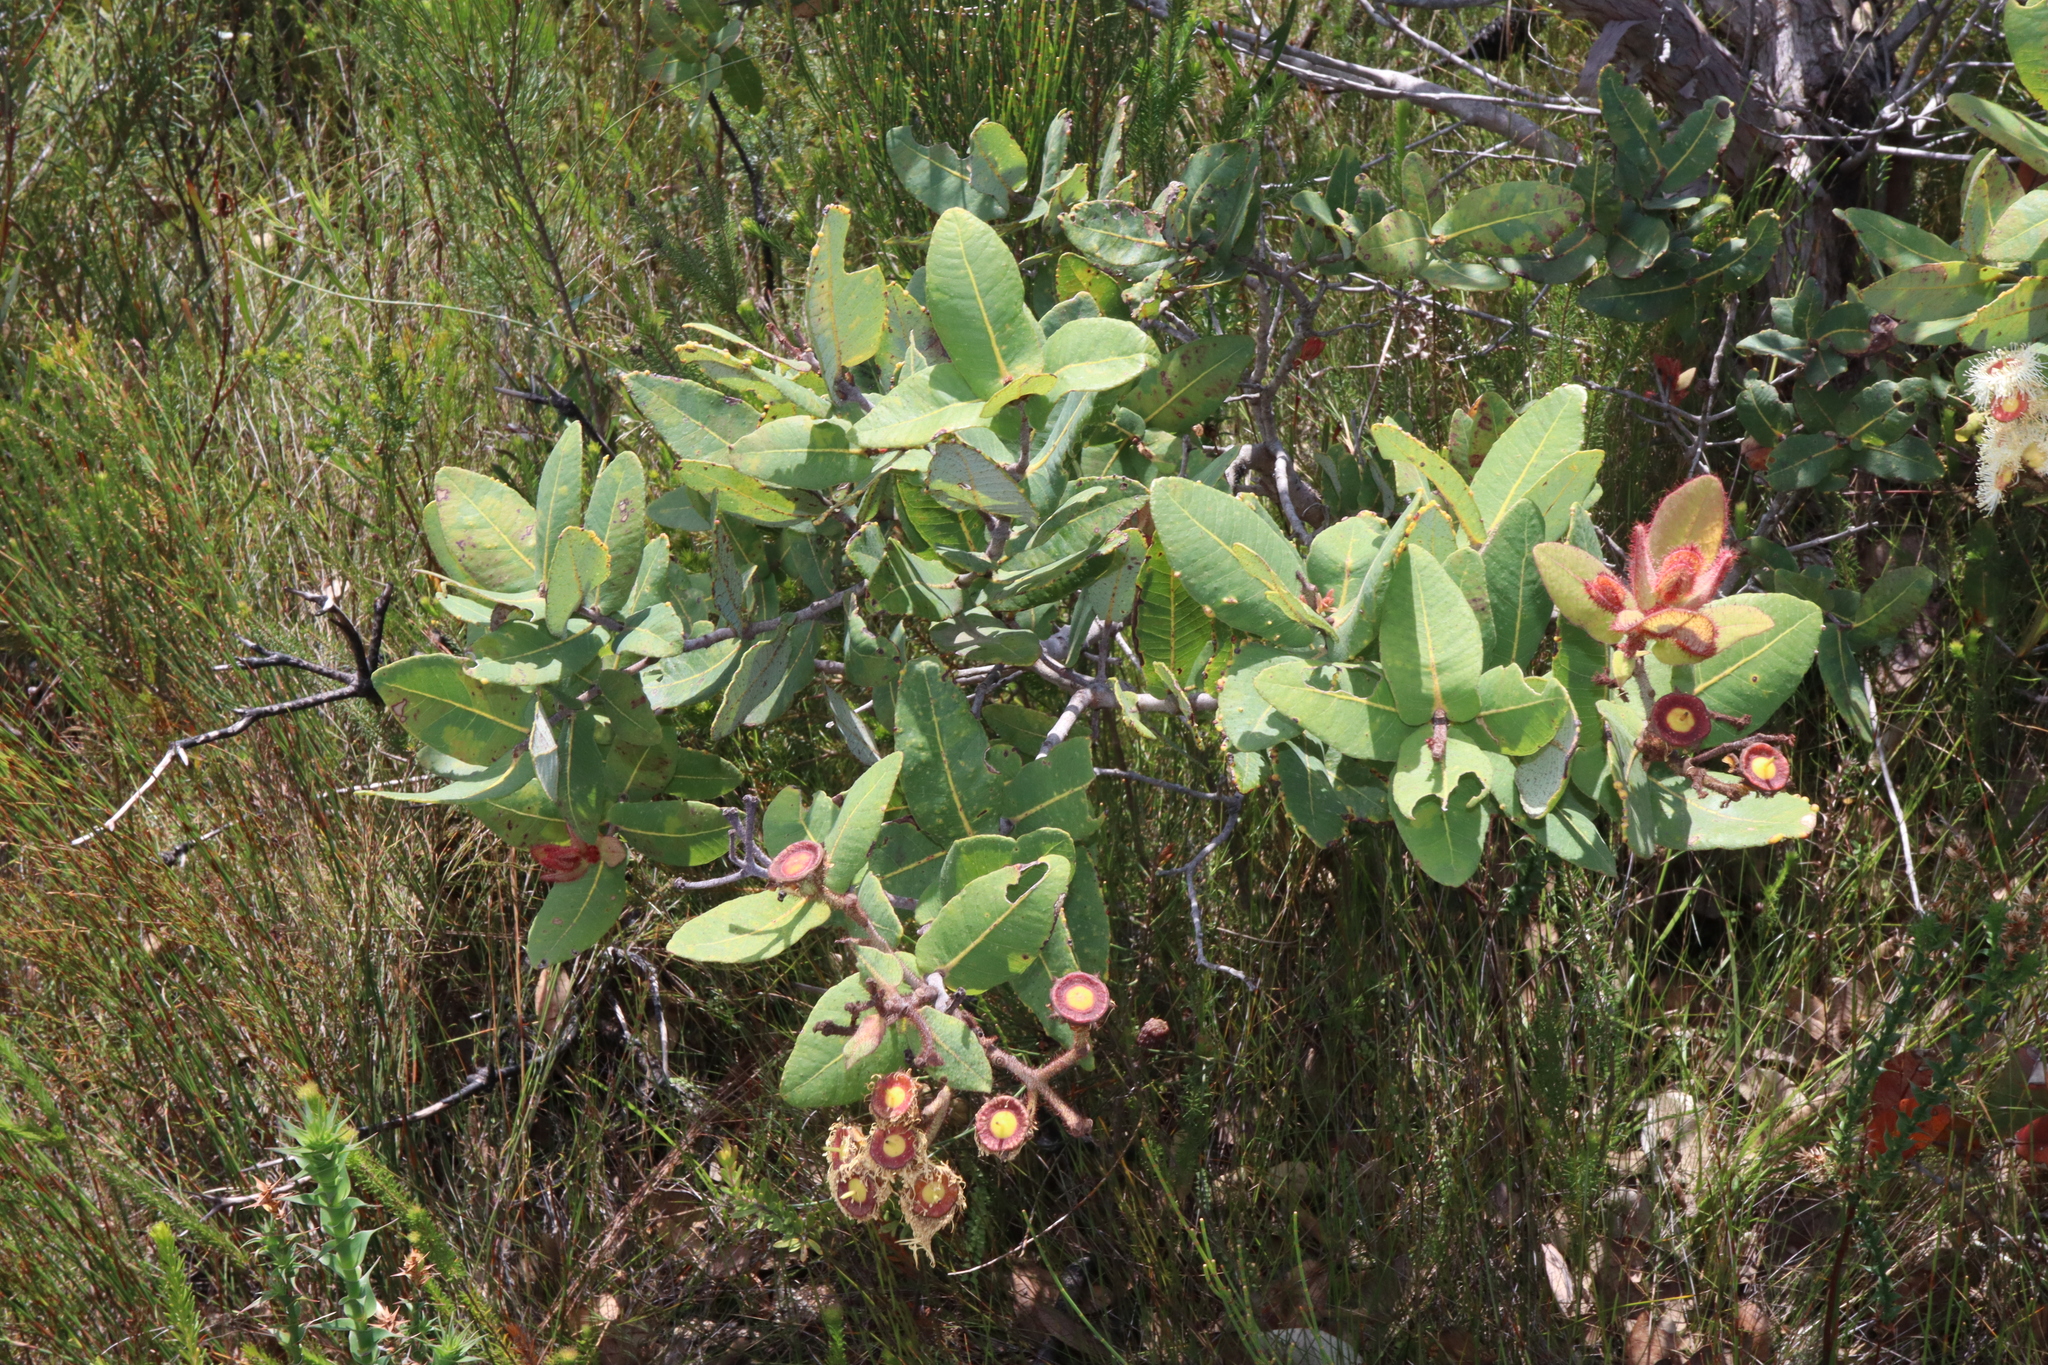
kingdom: Plantae
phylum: Tracheophyta
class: Magnoliopsida
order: Myrtales
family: Myrtaceae
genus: Angophora
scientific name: Angophora hispida
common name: Dwarf-apple
